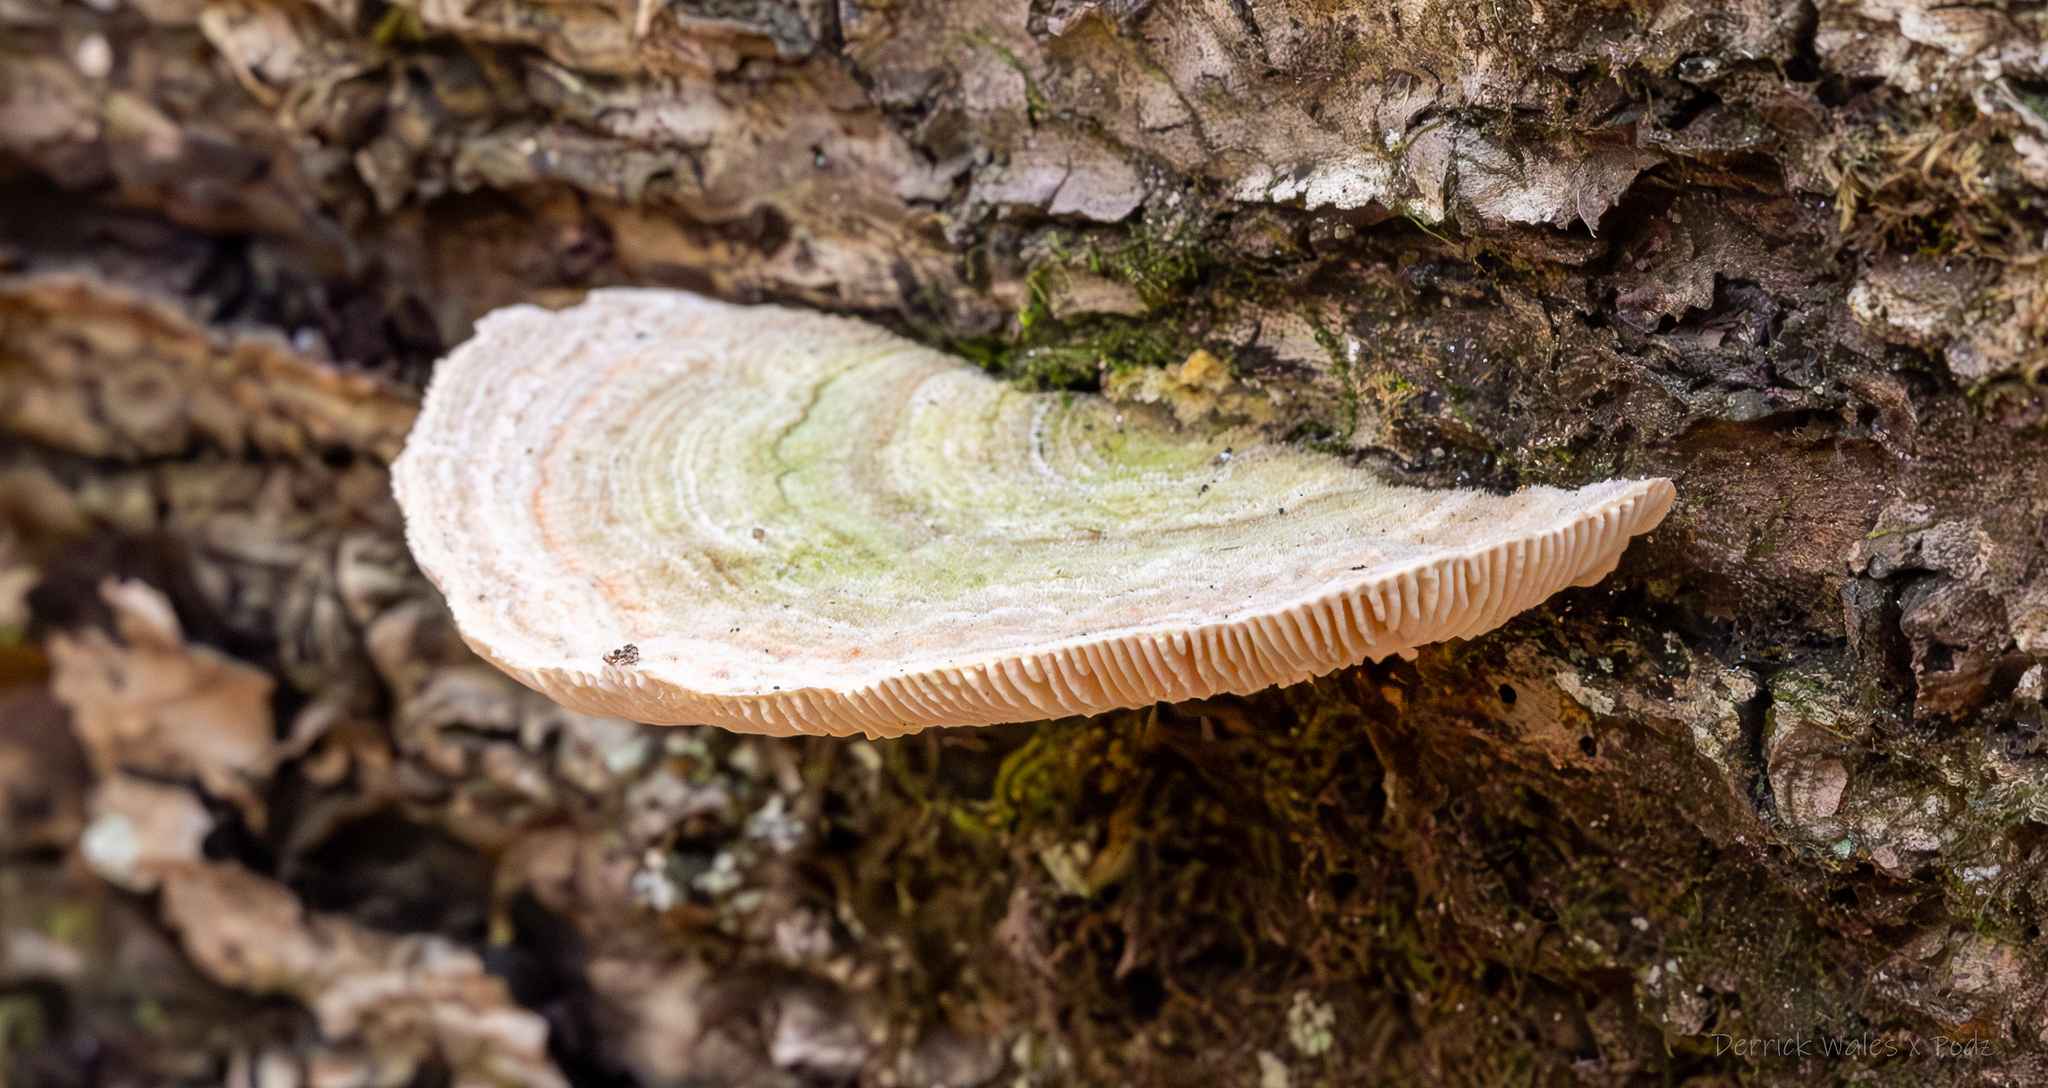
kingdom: Fungi
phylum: Basidiomycota
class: Agaricomycetes
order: Polyporales
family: Polyporaceae
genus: Lenzites
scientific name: Lenzites betulinus
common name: Birch mazegill
